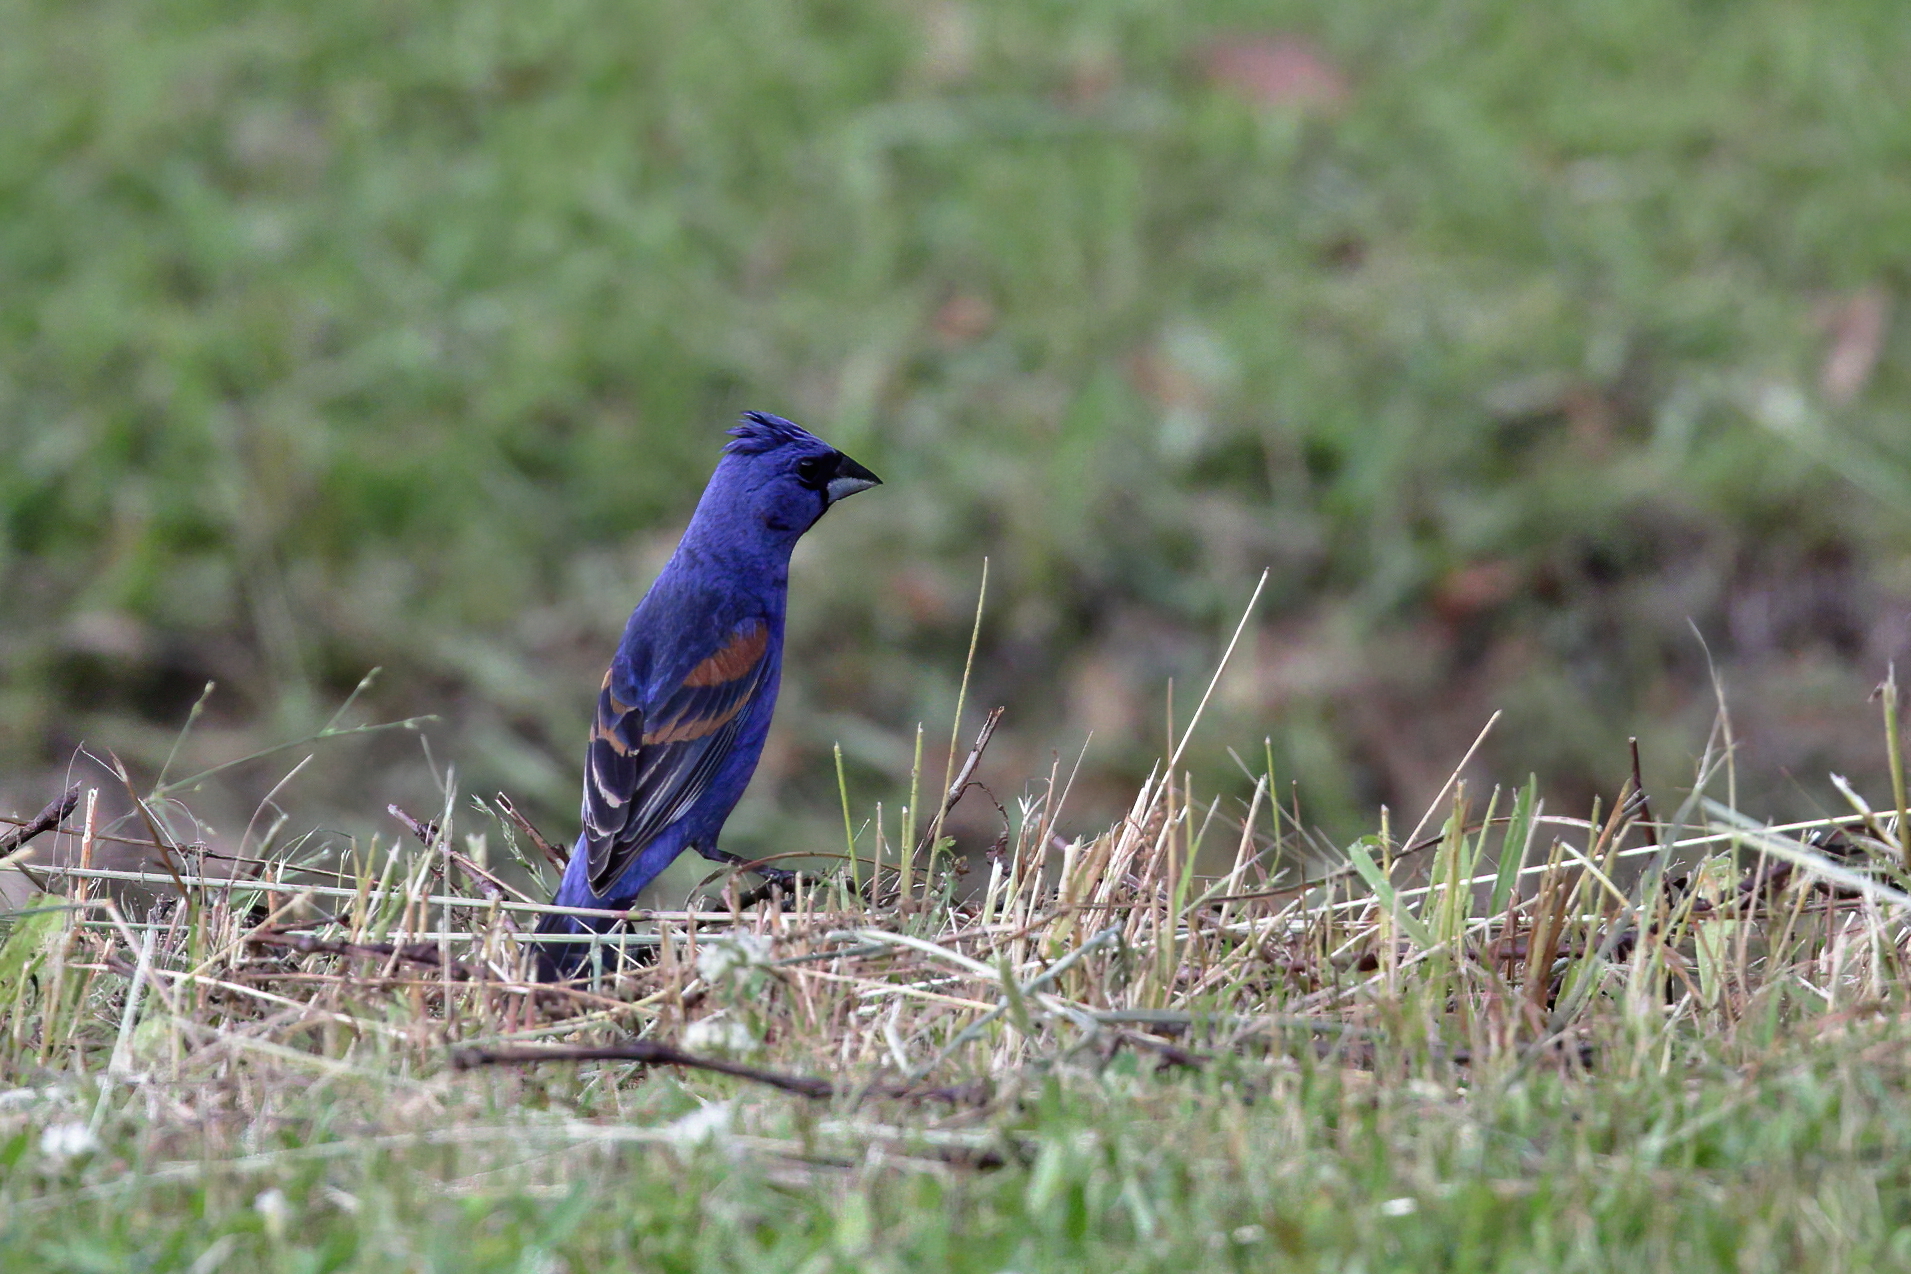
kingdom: Animalia
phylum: Chordata
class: Aves
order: Passeriformes
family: Cardinalidae
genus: Passerina
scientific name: Passerina caerulea
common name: Blue grosbeak
